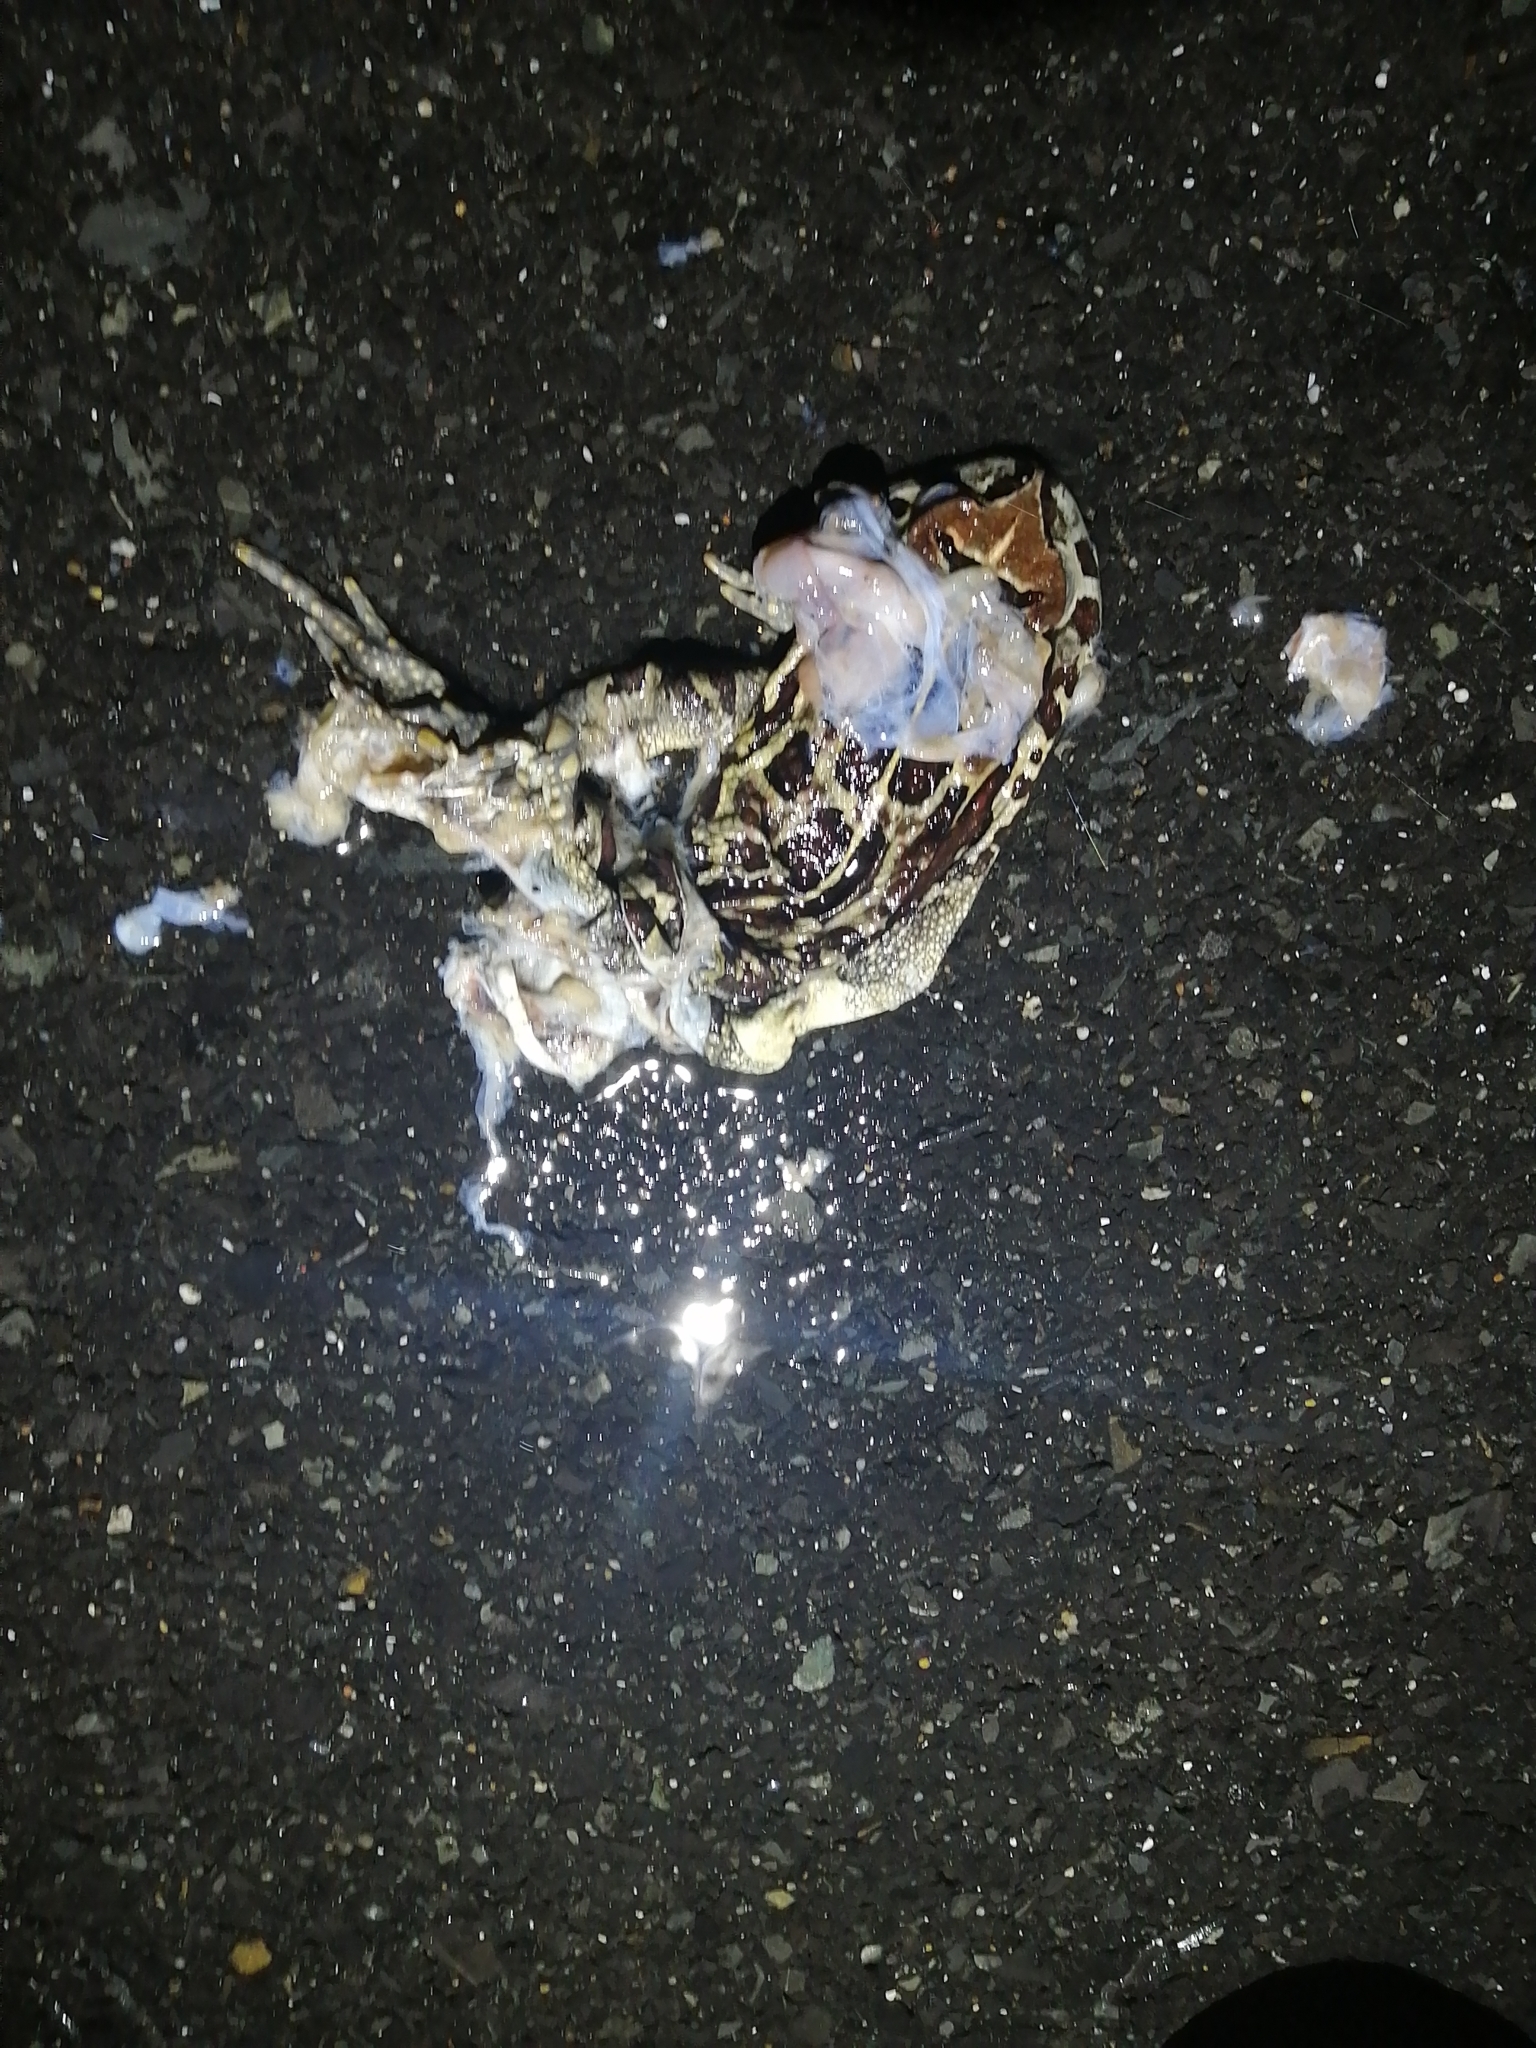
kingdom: Animalia
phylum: Chordata
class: Amphibia
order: Anura
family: Bufonidae
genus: Sclerophrys
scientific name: Sclerophrys pantherina
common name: Panther toad
